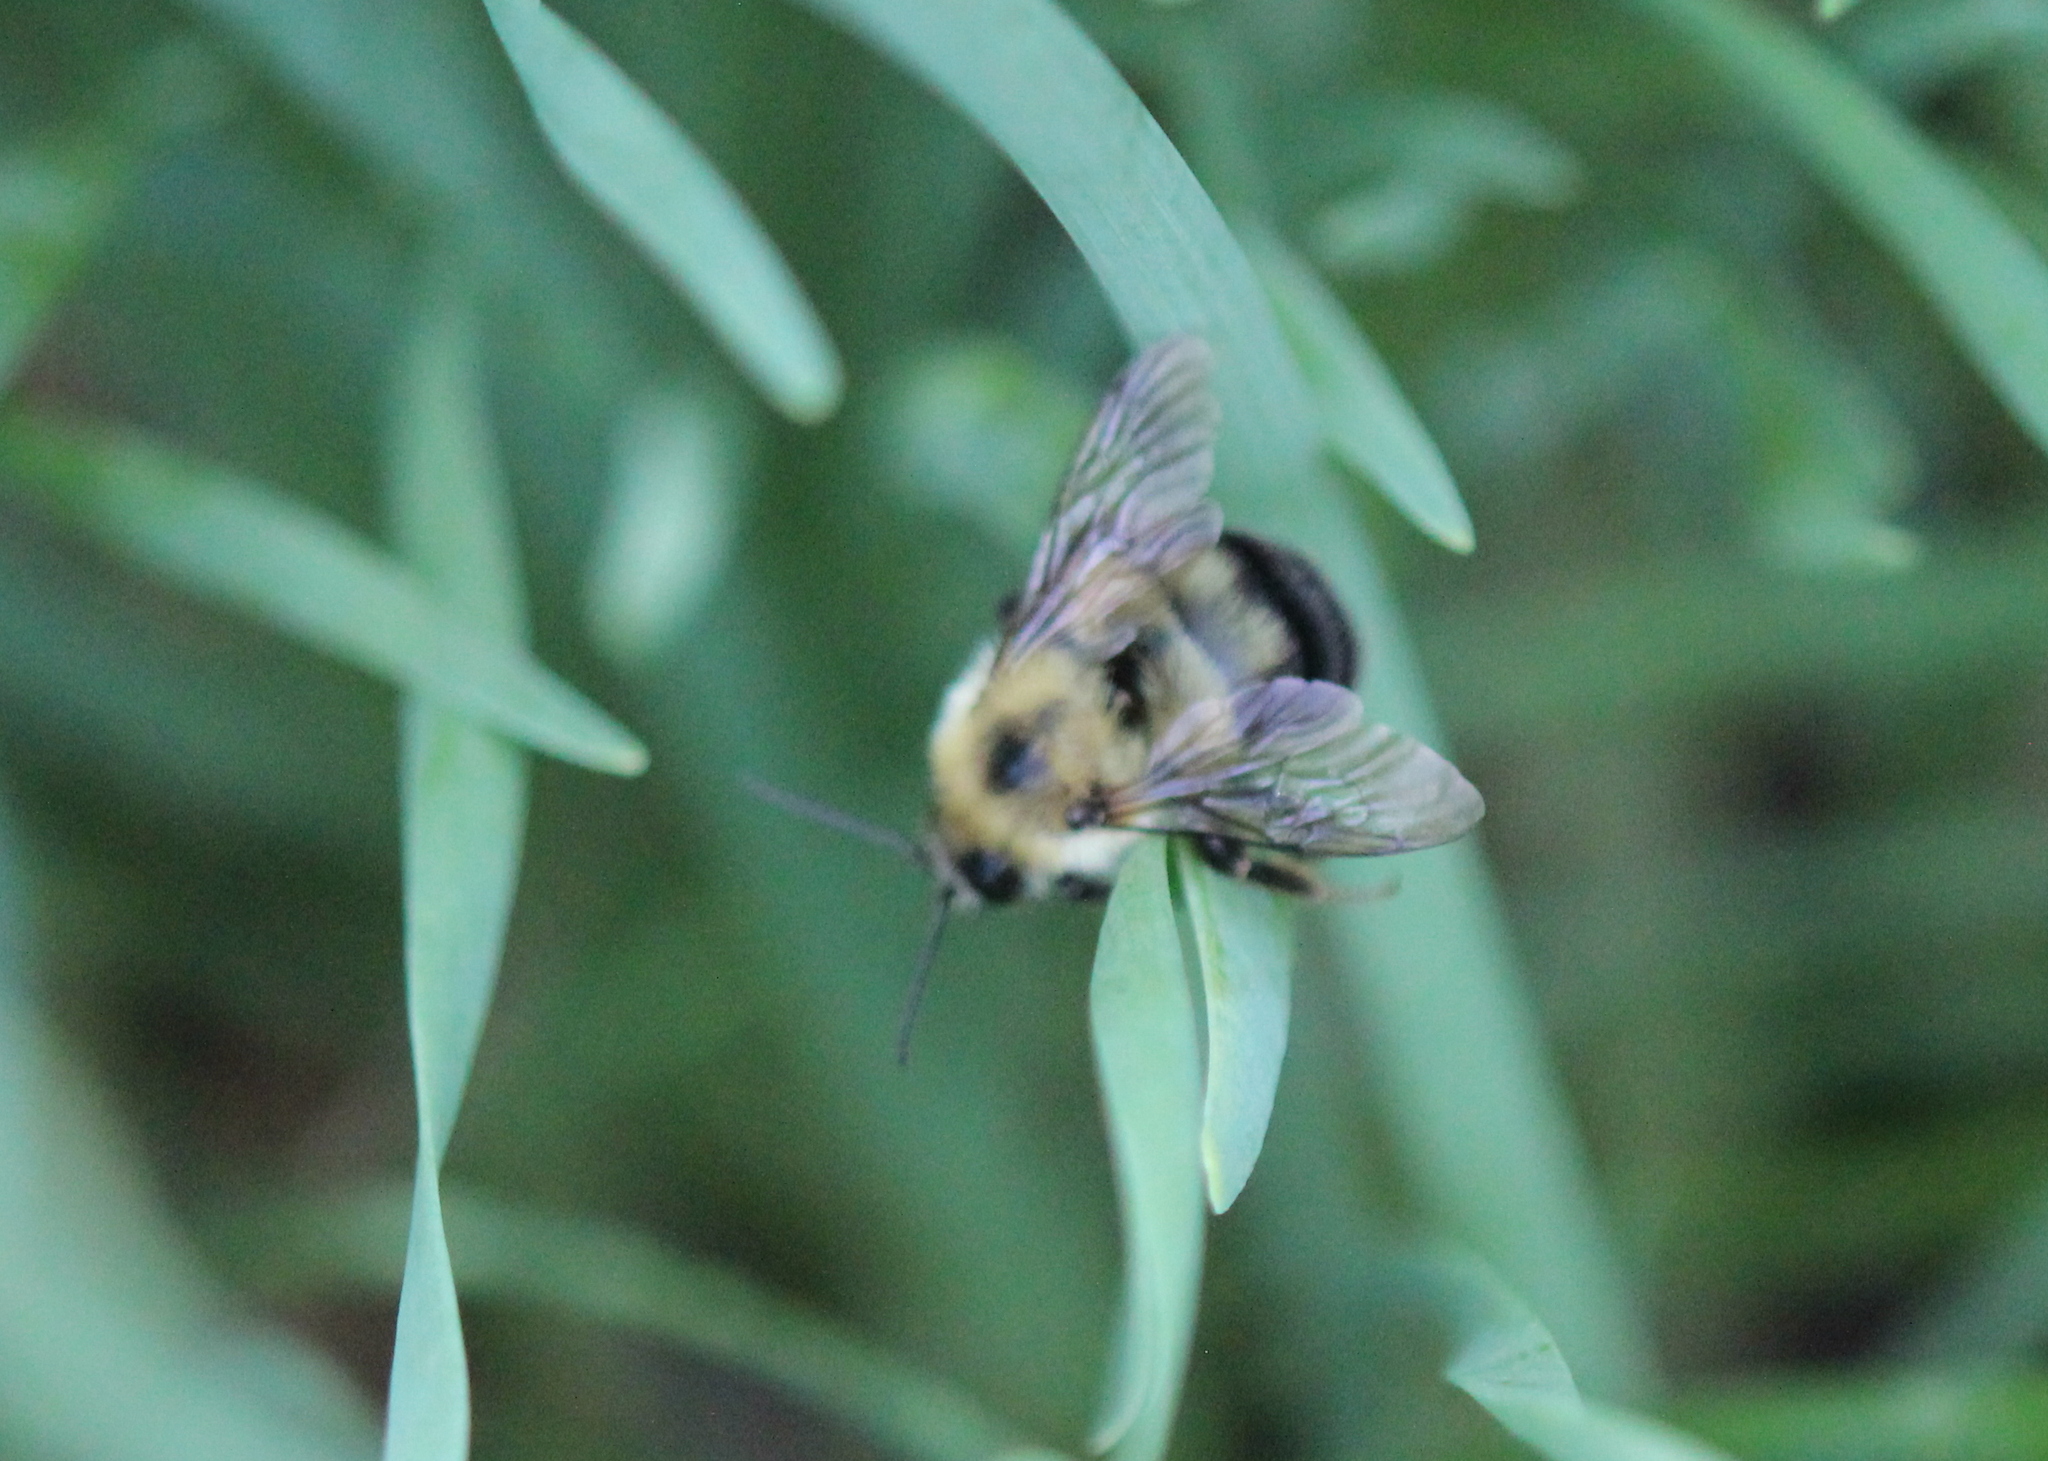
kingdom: Animalia
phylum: Arthropoda
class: Insecta
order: Hymenoptera
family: Apidae
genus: Bombus
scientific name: Bombus bimaculatus
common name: Two-spotted bumble bee
